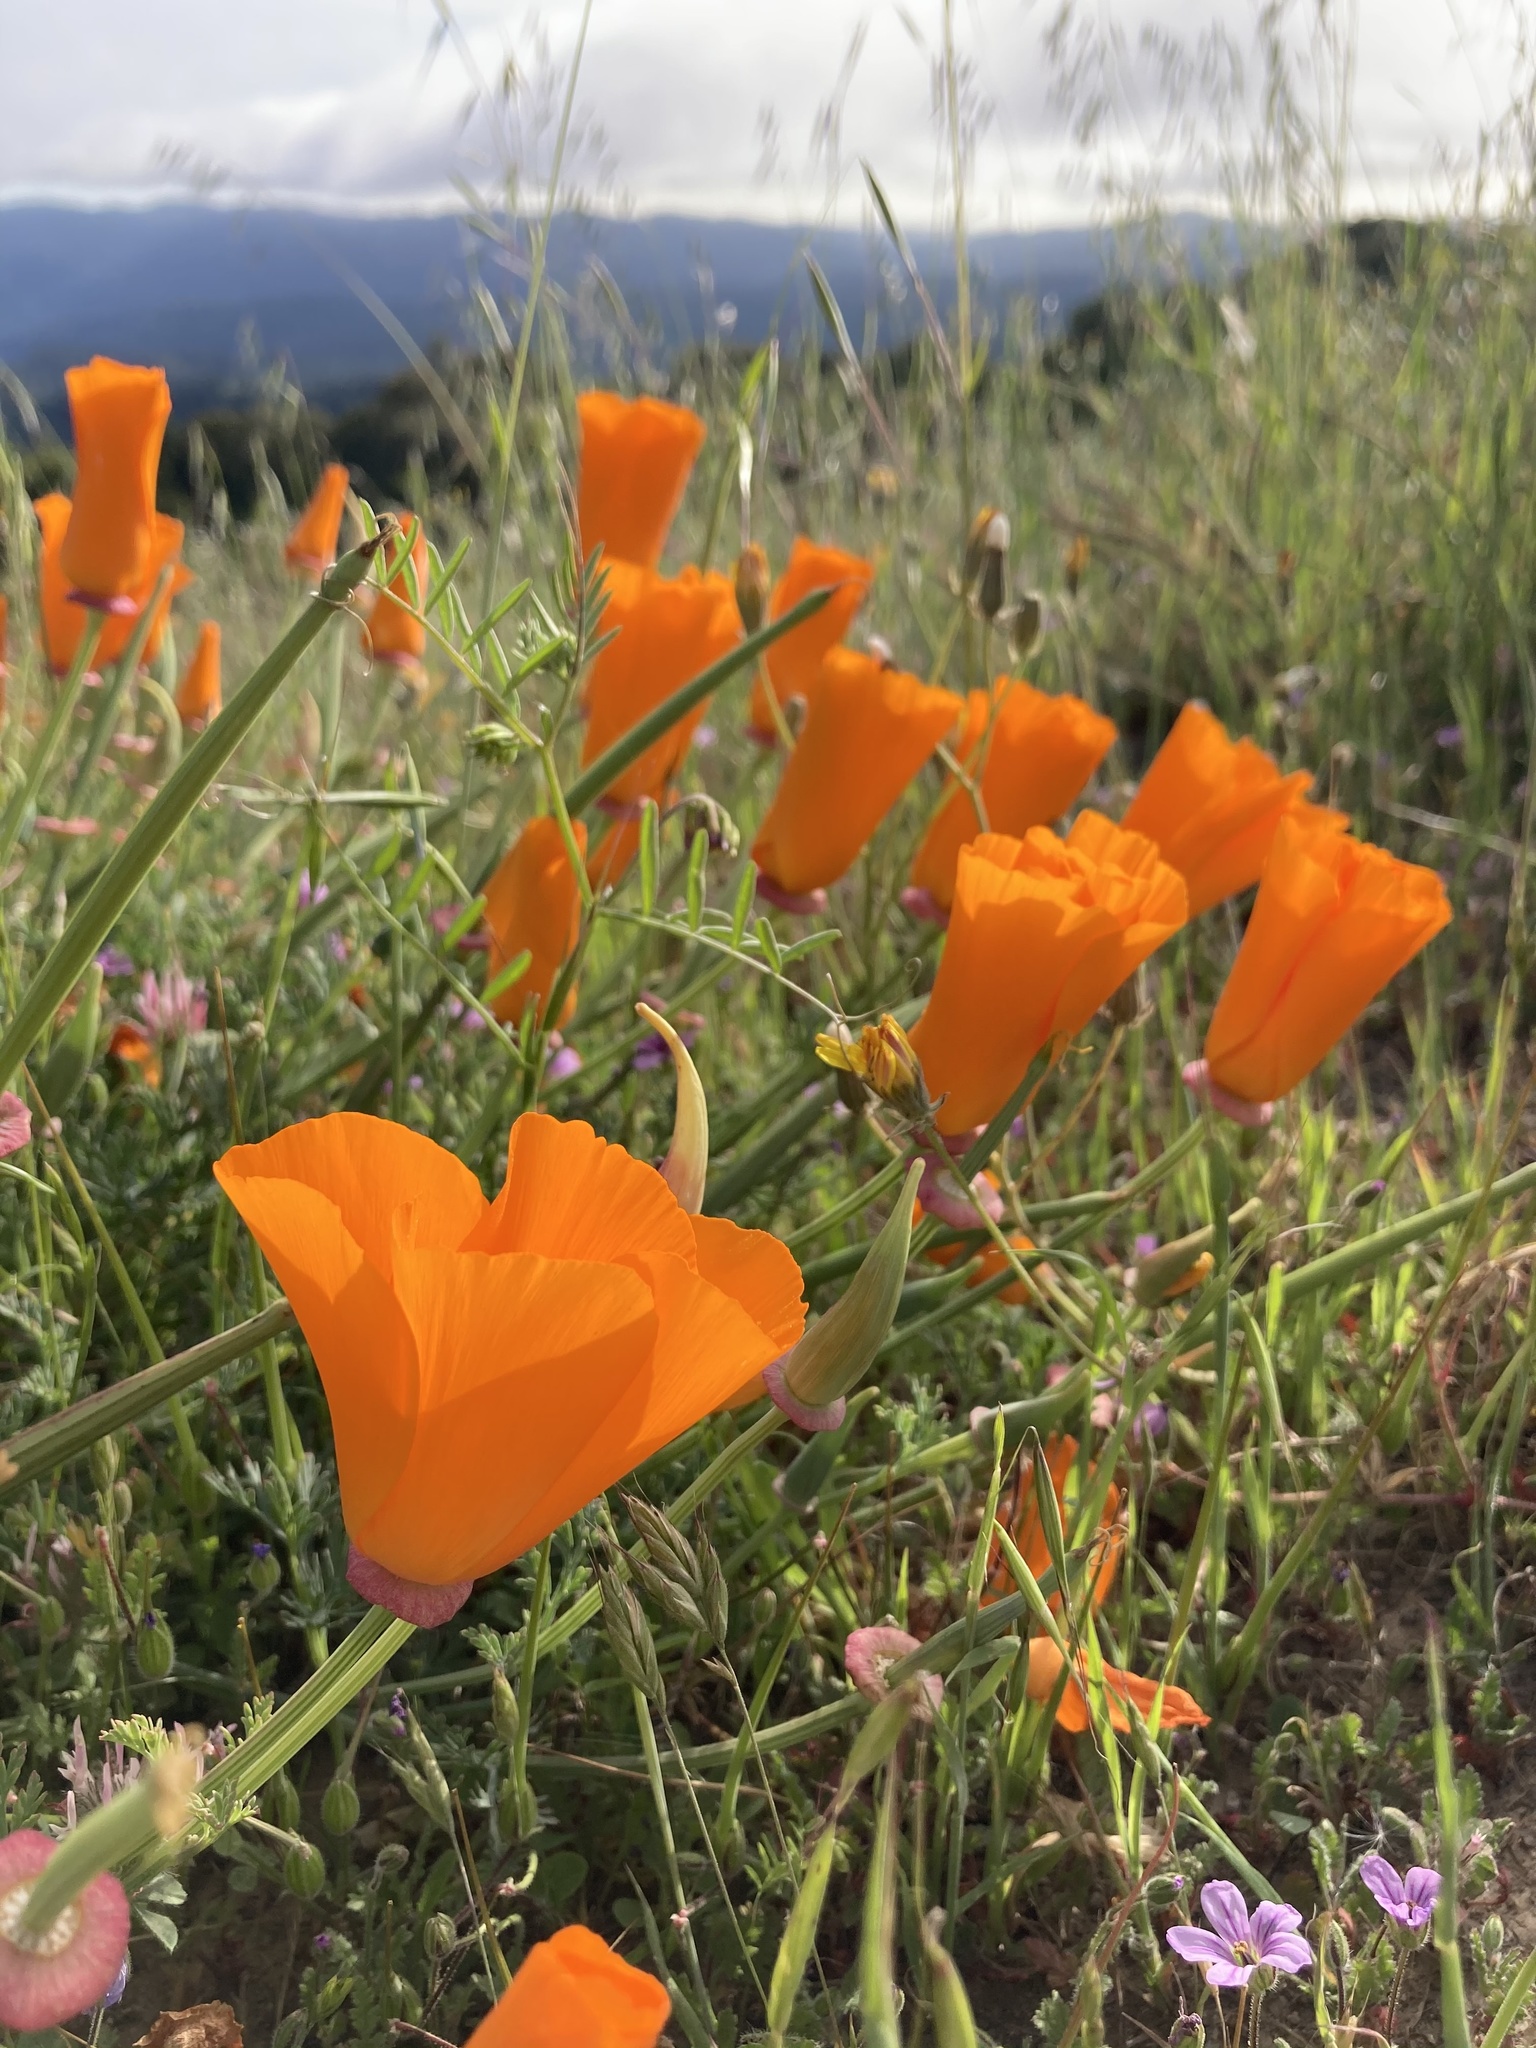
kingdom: Plantae
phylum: Tracheophyta
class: Magnoliopsida
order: Ranunculales
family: Papaveraceae
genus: Eschscholzia
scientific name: Eschscholzia californica
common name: California poppy
